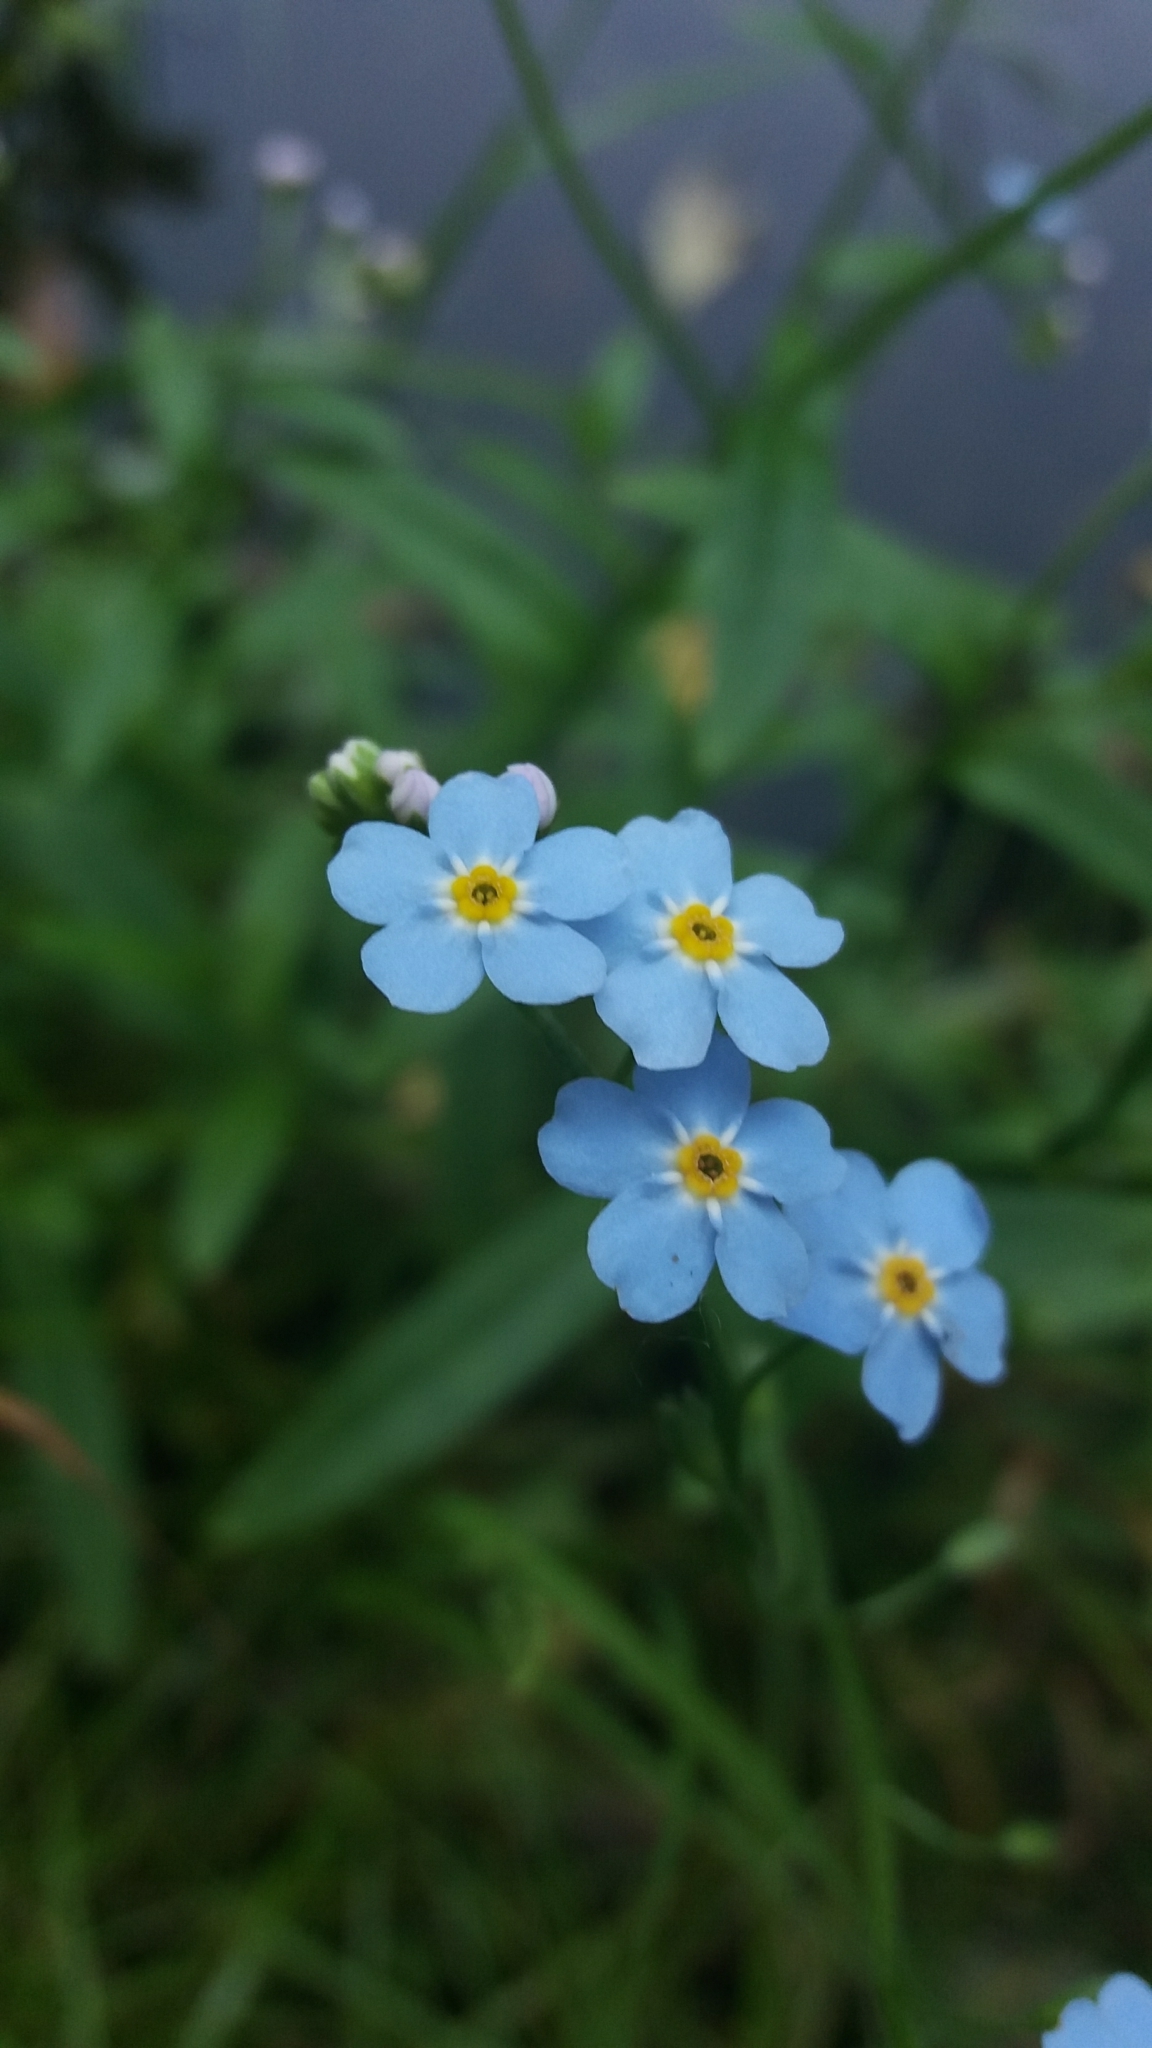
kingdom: Plantae
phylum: Tracheophyta
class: Magnoliopsida
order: Boraginales
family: Boraginaceae
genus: Myosotis
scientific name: Myosotis scorpioides
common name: Water forget-me-not
